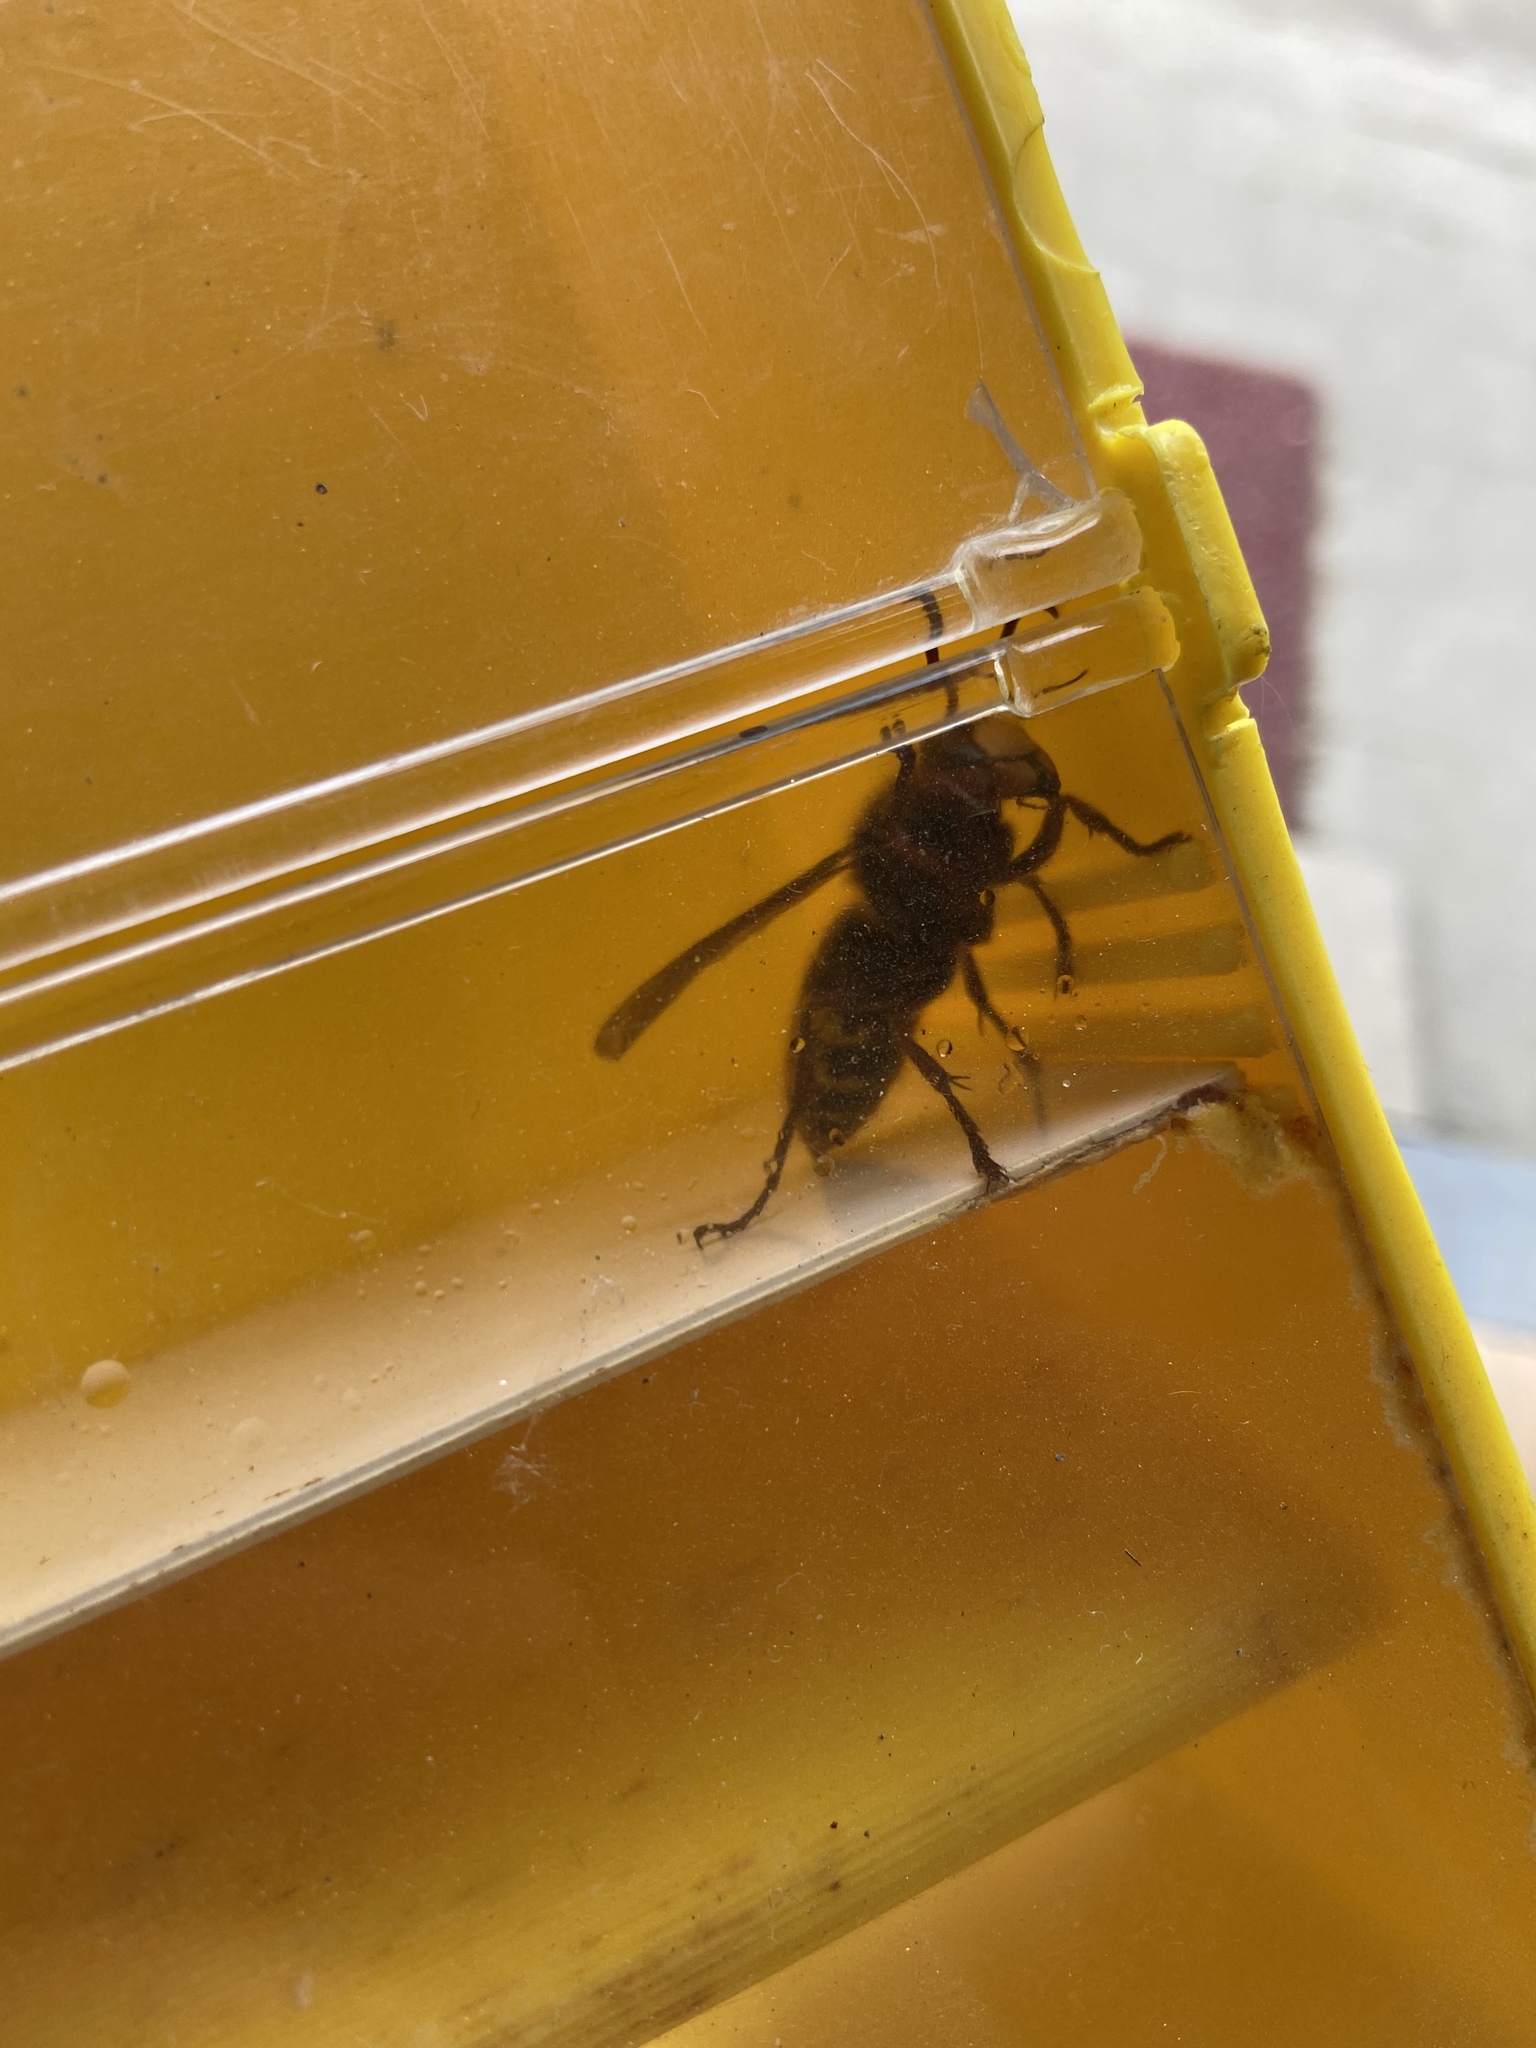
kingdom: Animalia
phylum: Arthropoda
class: Insecta
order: Hymenoptera
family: Vespidae
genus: Vespa
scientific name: Vespa crabro
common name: Hornet
